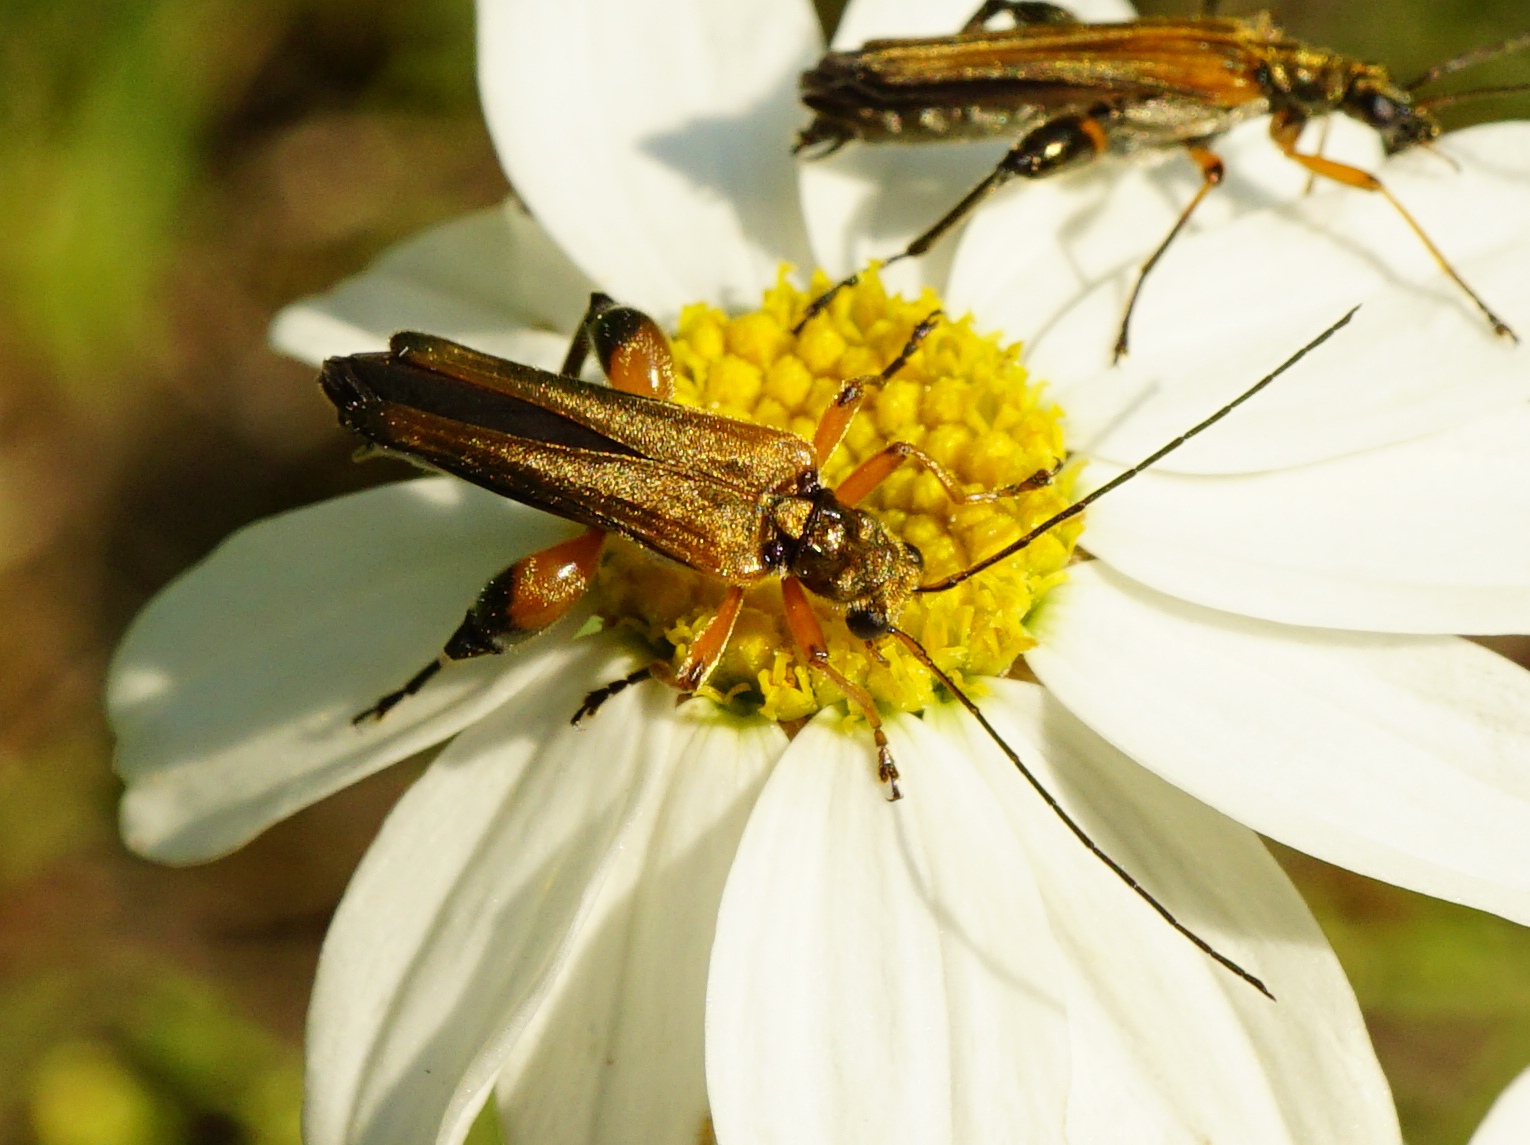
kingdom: Animalia
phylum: Arthropoda
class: Insecta
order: Coleoptera
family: Oedemeridae
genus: Oedemera
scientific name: Oedemera podagrariae
